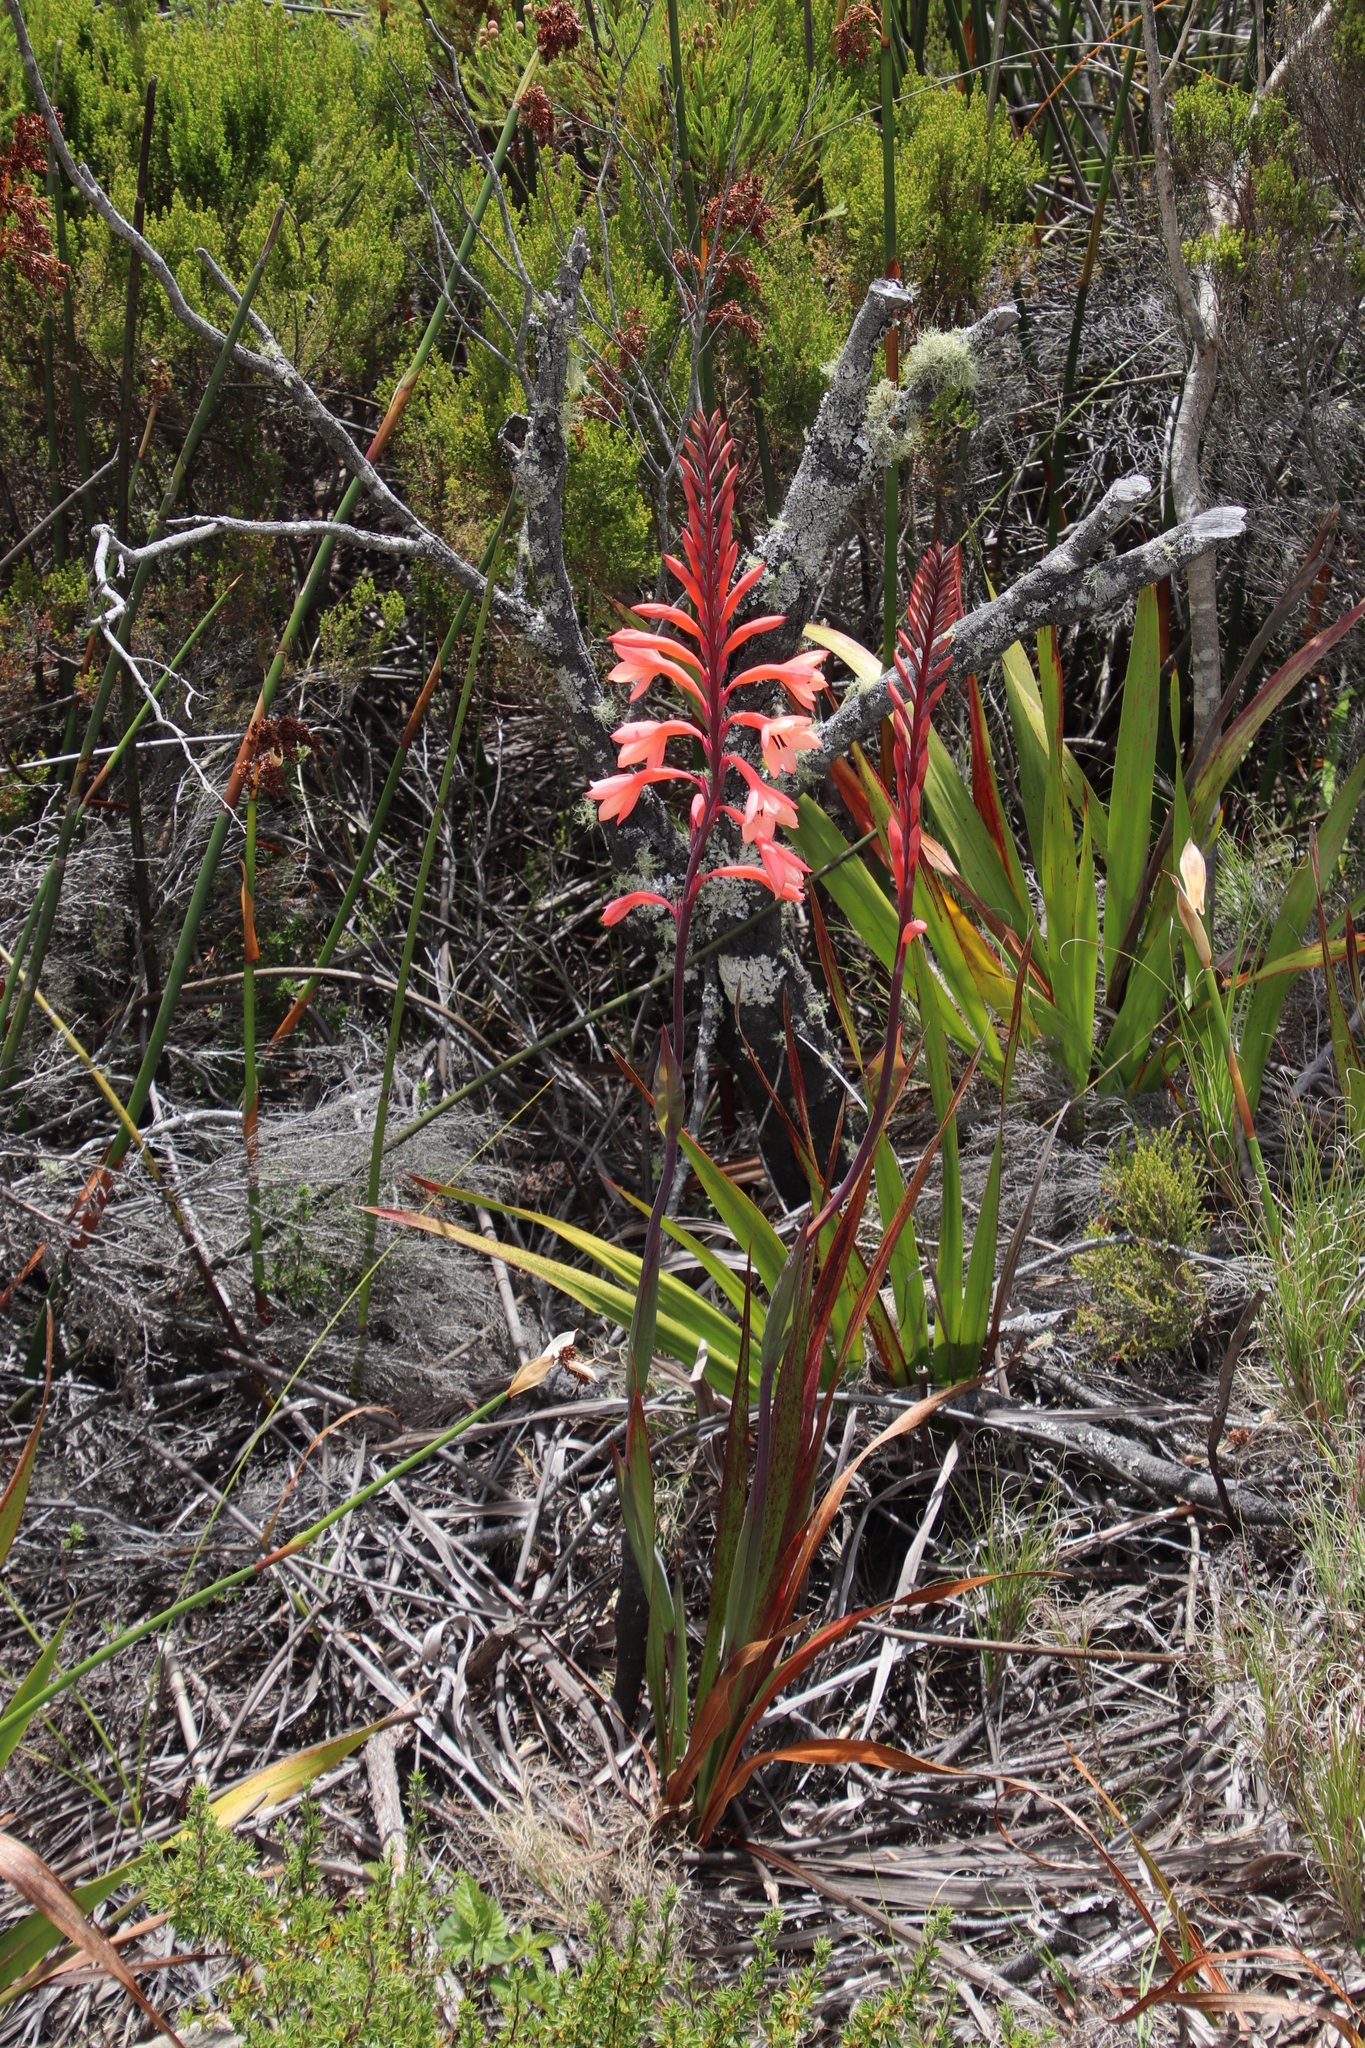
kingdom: Plantae
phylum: Tracheophyta
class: Liliopsida
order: Asparagales
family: Iridaceae
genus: Watsonia
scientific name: Watsonia tabularis
